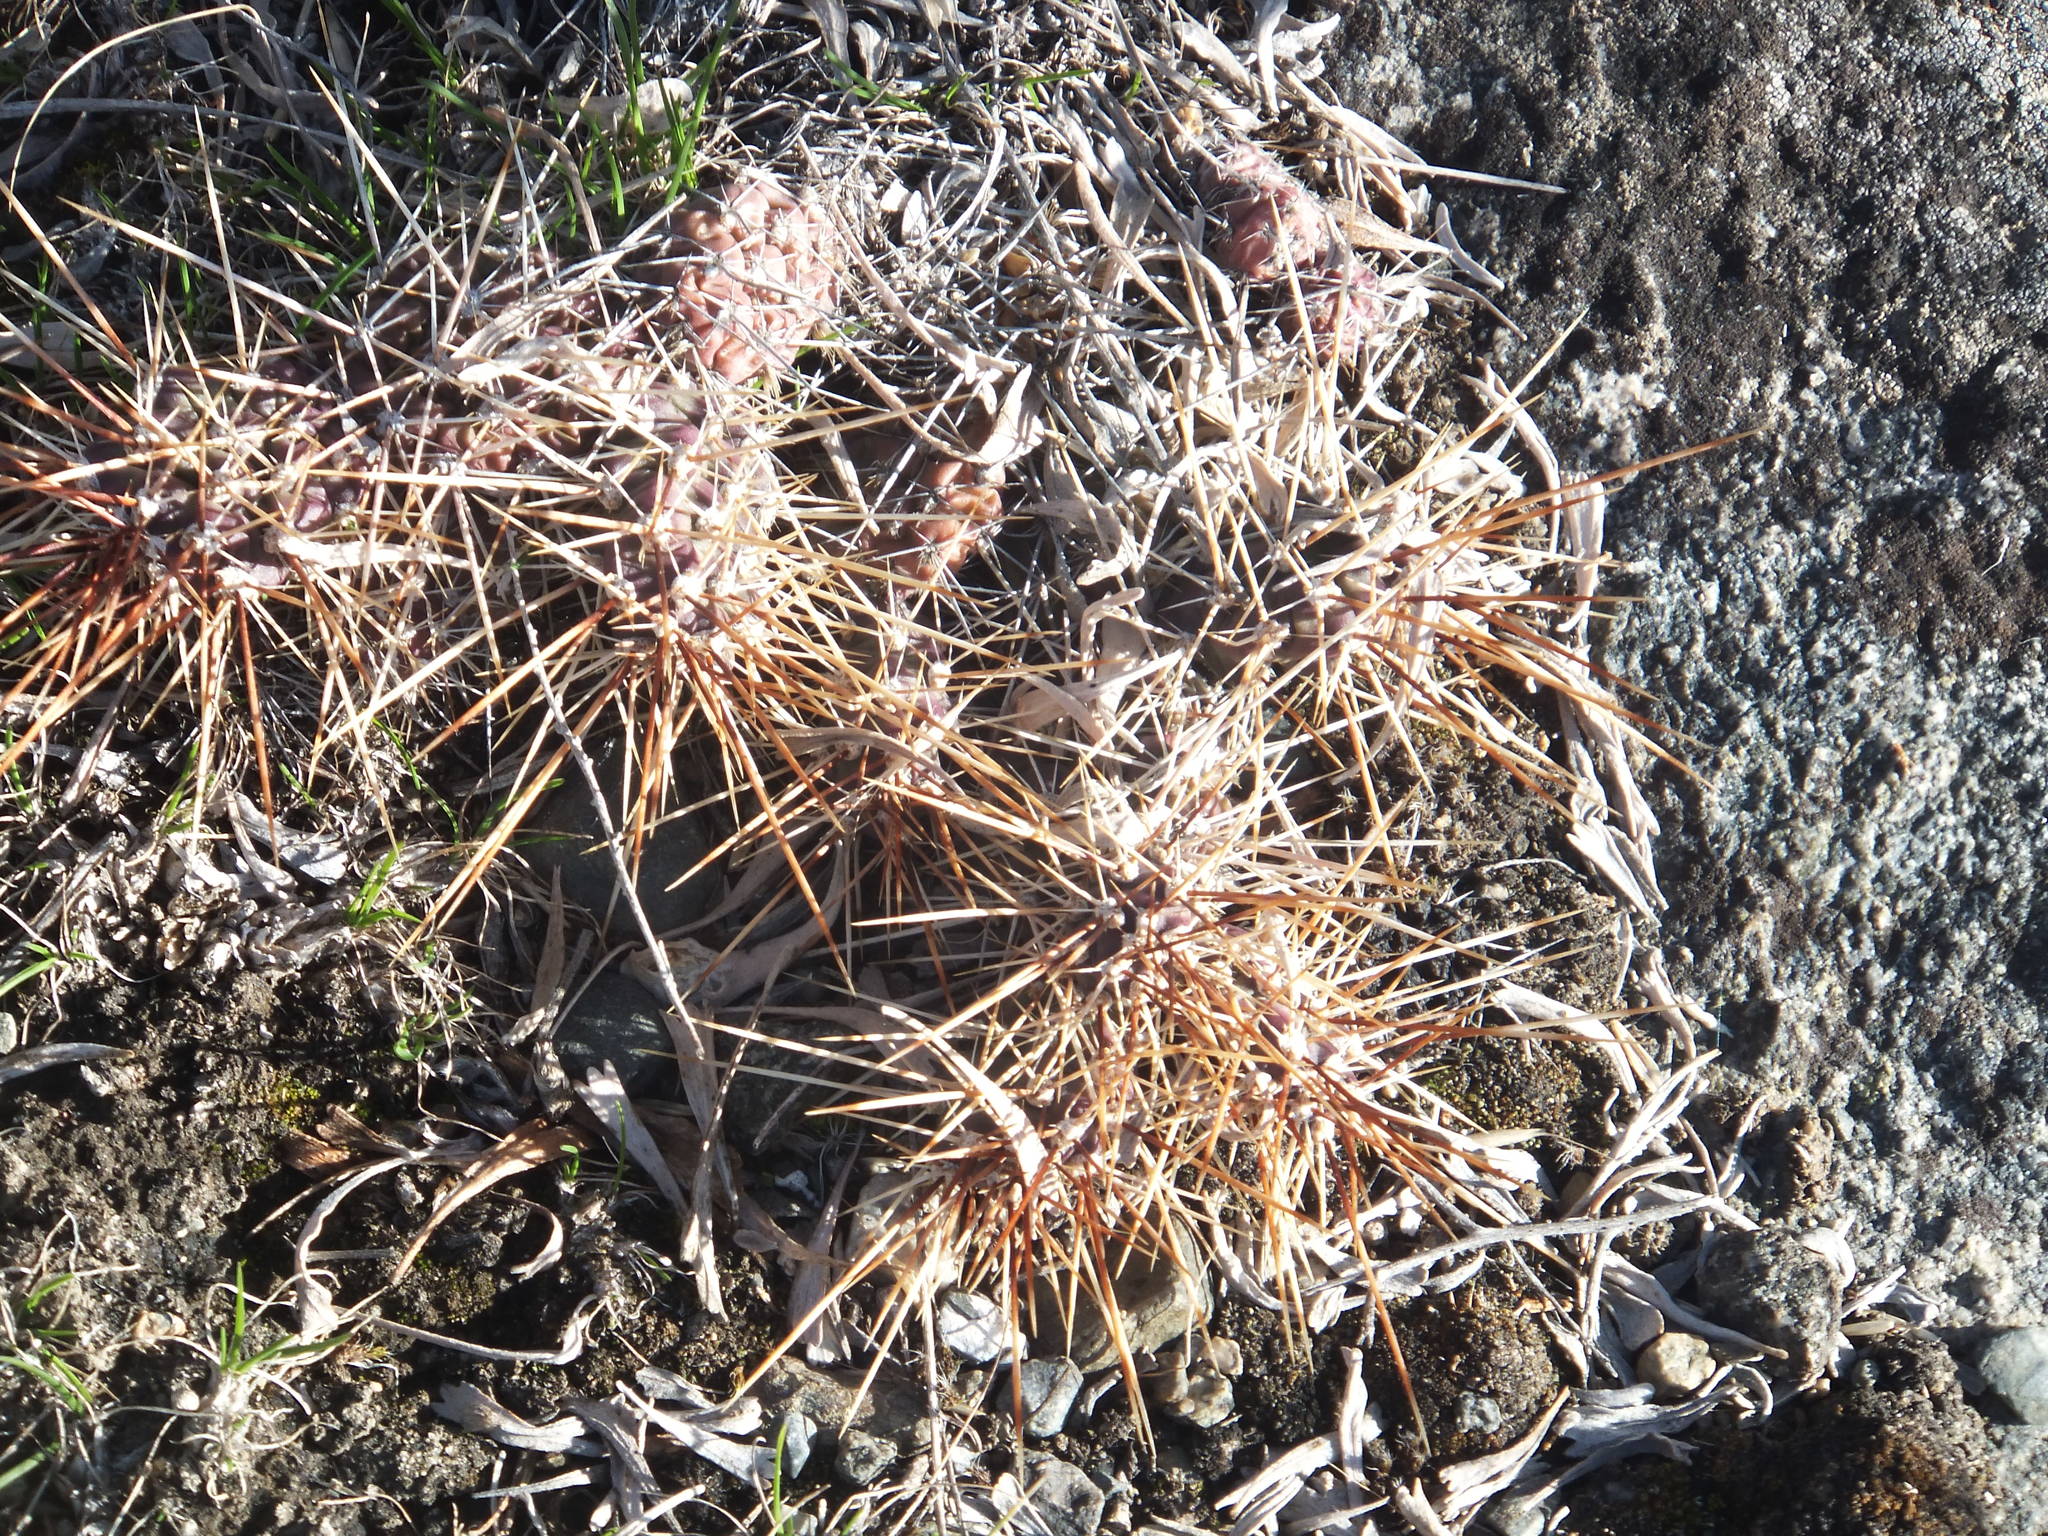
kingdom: Plantae
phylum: Tracheophyta
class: Magnoliopsida
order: Caryophyllales
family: Cactaceae
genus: Opuntia
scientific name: Opuntia fragilis
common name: Brittle cactus
